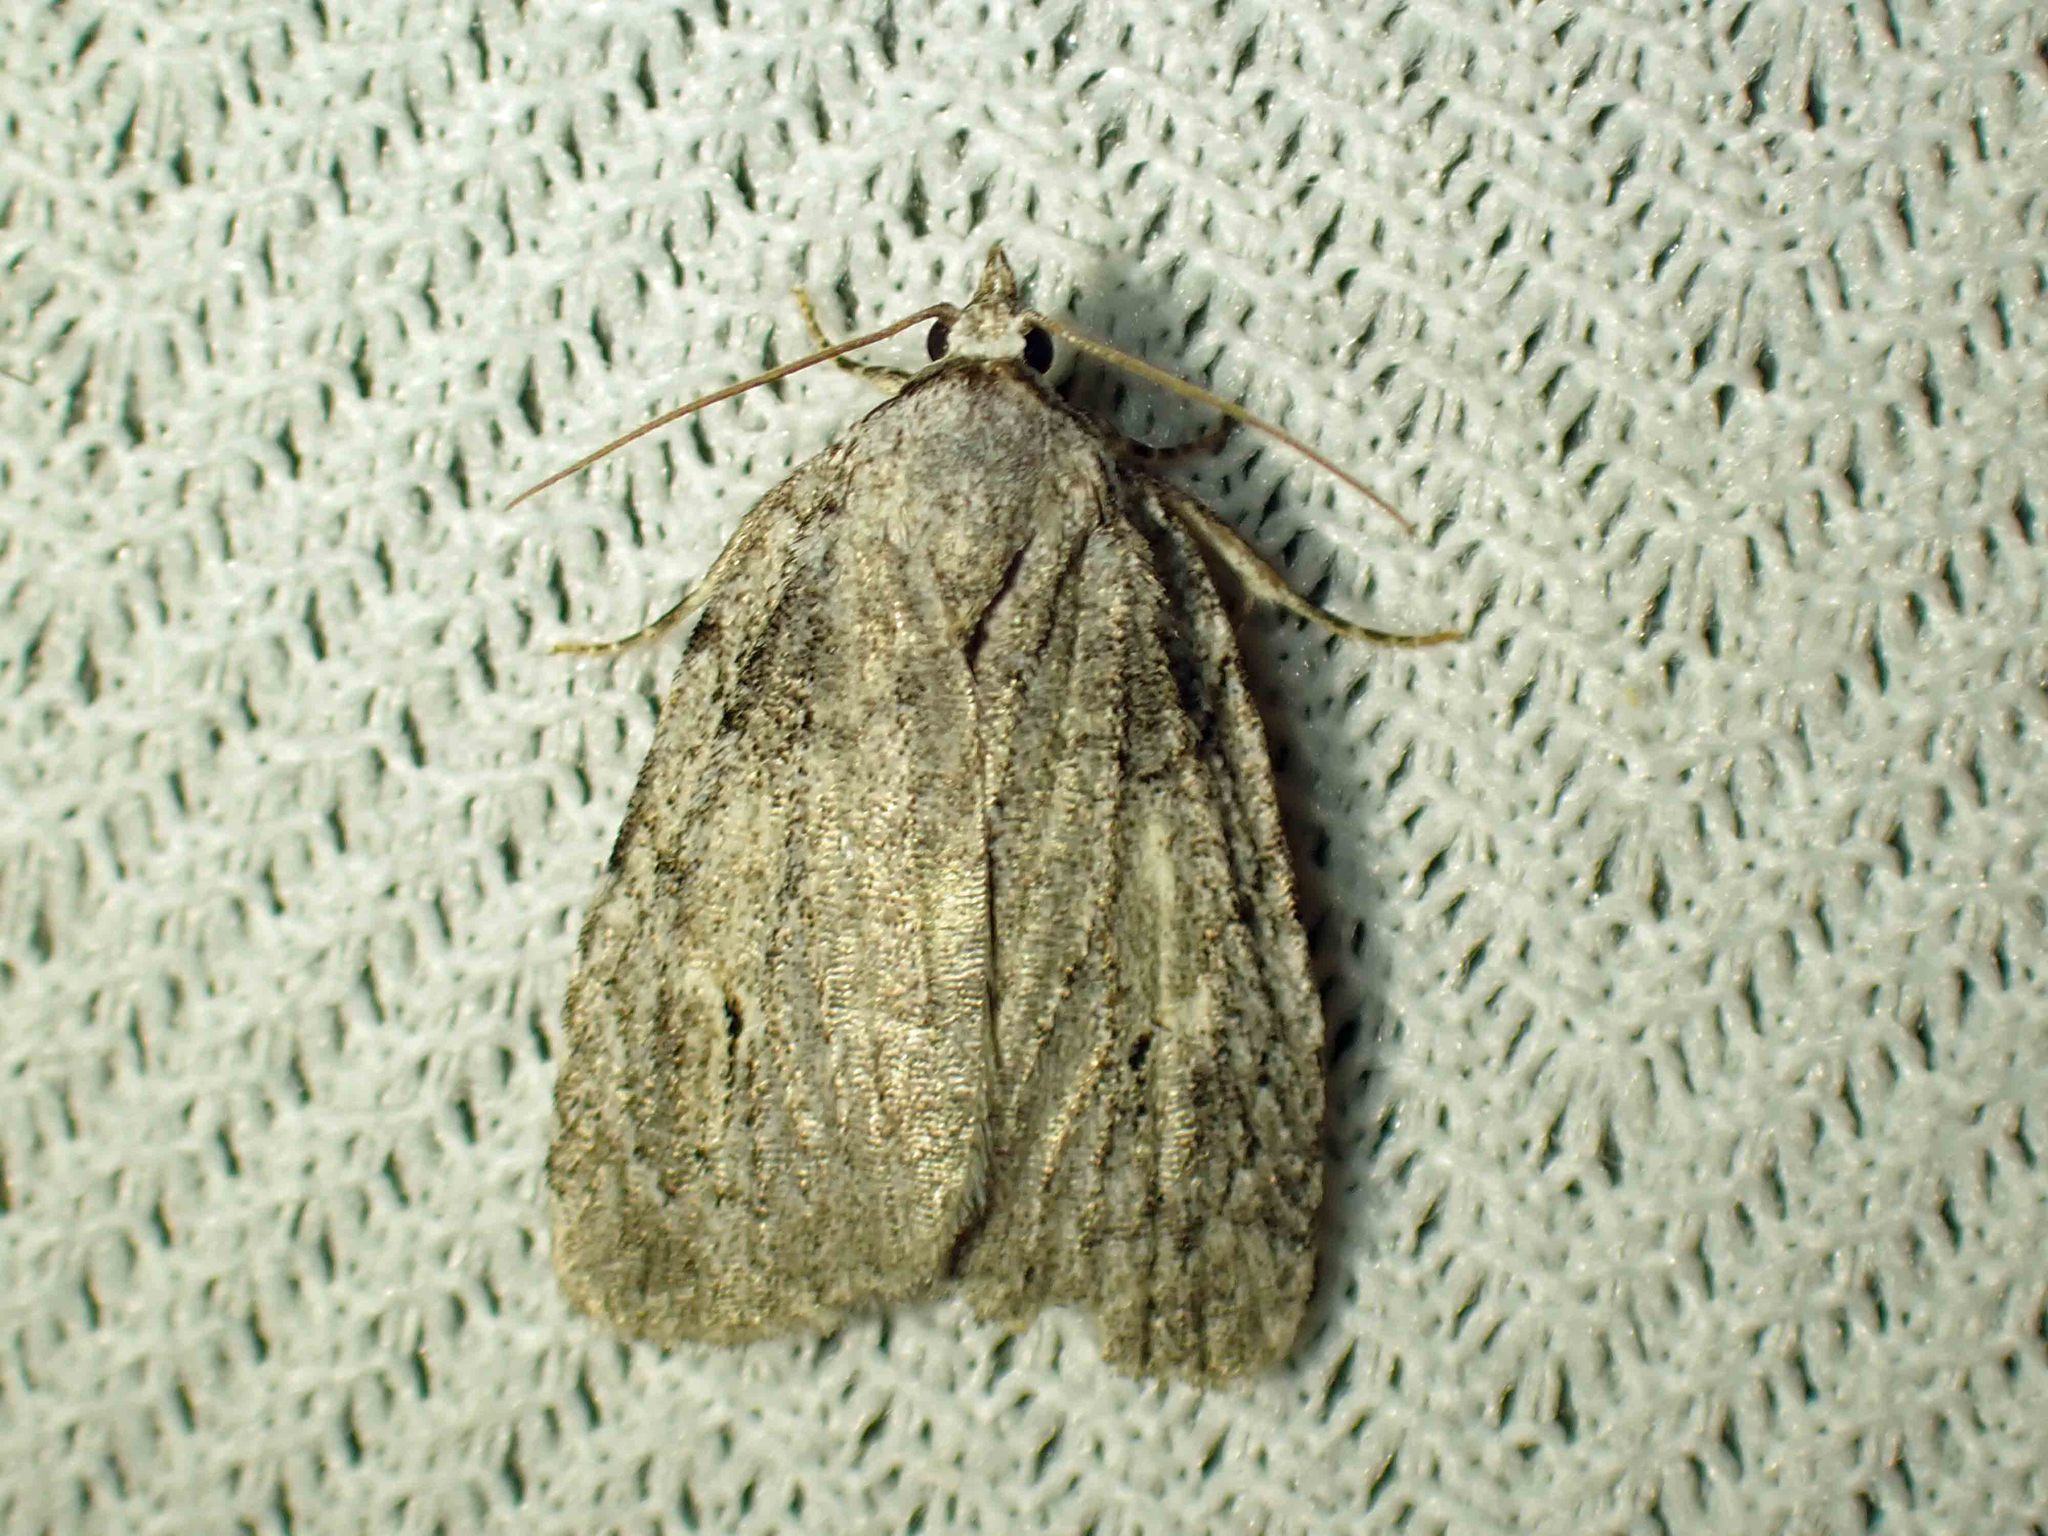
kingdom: Animalia
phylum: Arthropoda
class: Insecta
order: Lepidoptera
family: Noctuidae
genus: Balsa
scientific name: Balsa labecula
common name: White-blotched balsa moth
